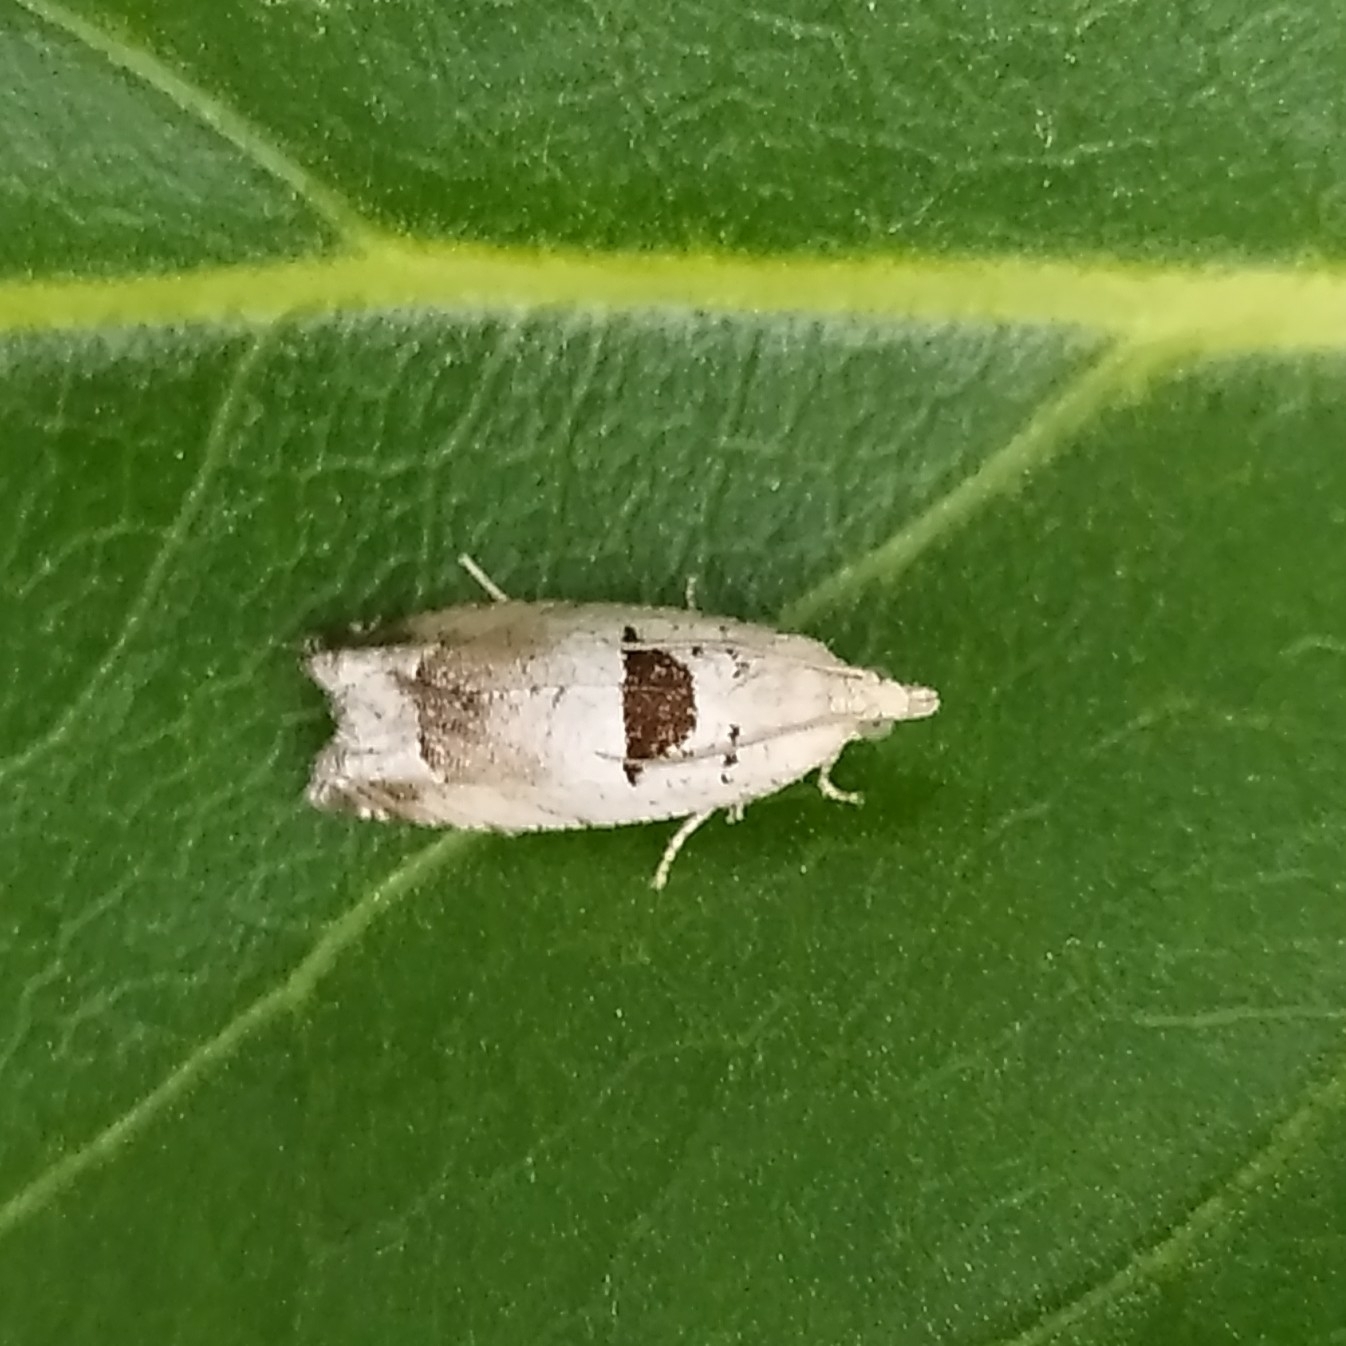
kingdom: Animalia
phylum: Arthropoda
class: Insecta
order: Lepidoptera
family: Tortricidae
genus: Epinotia
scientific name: Epinotia ramella
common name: Small birch bell
